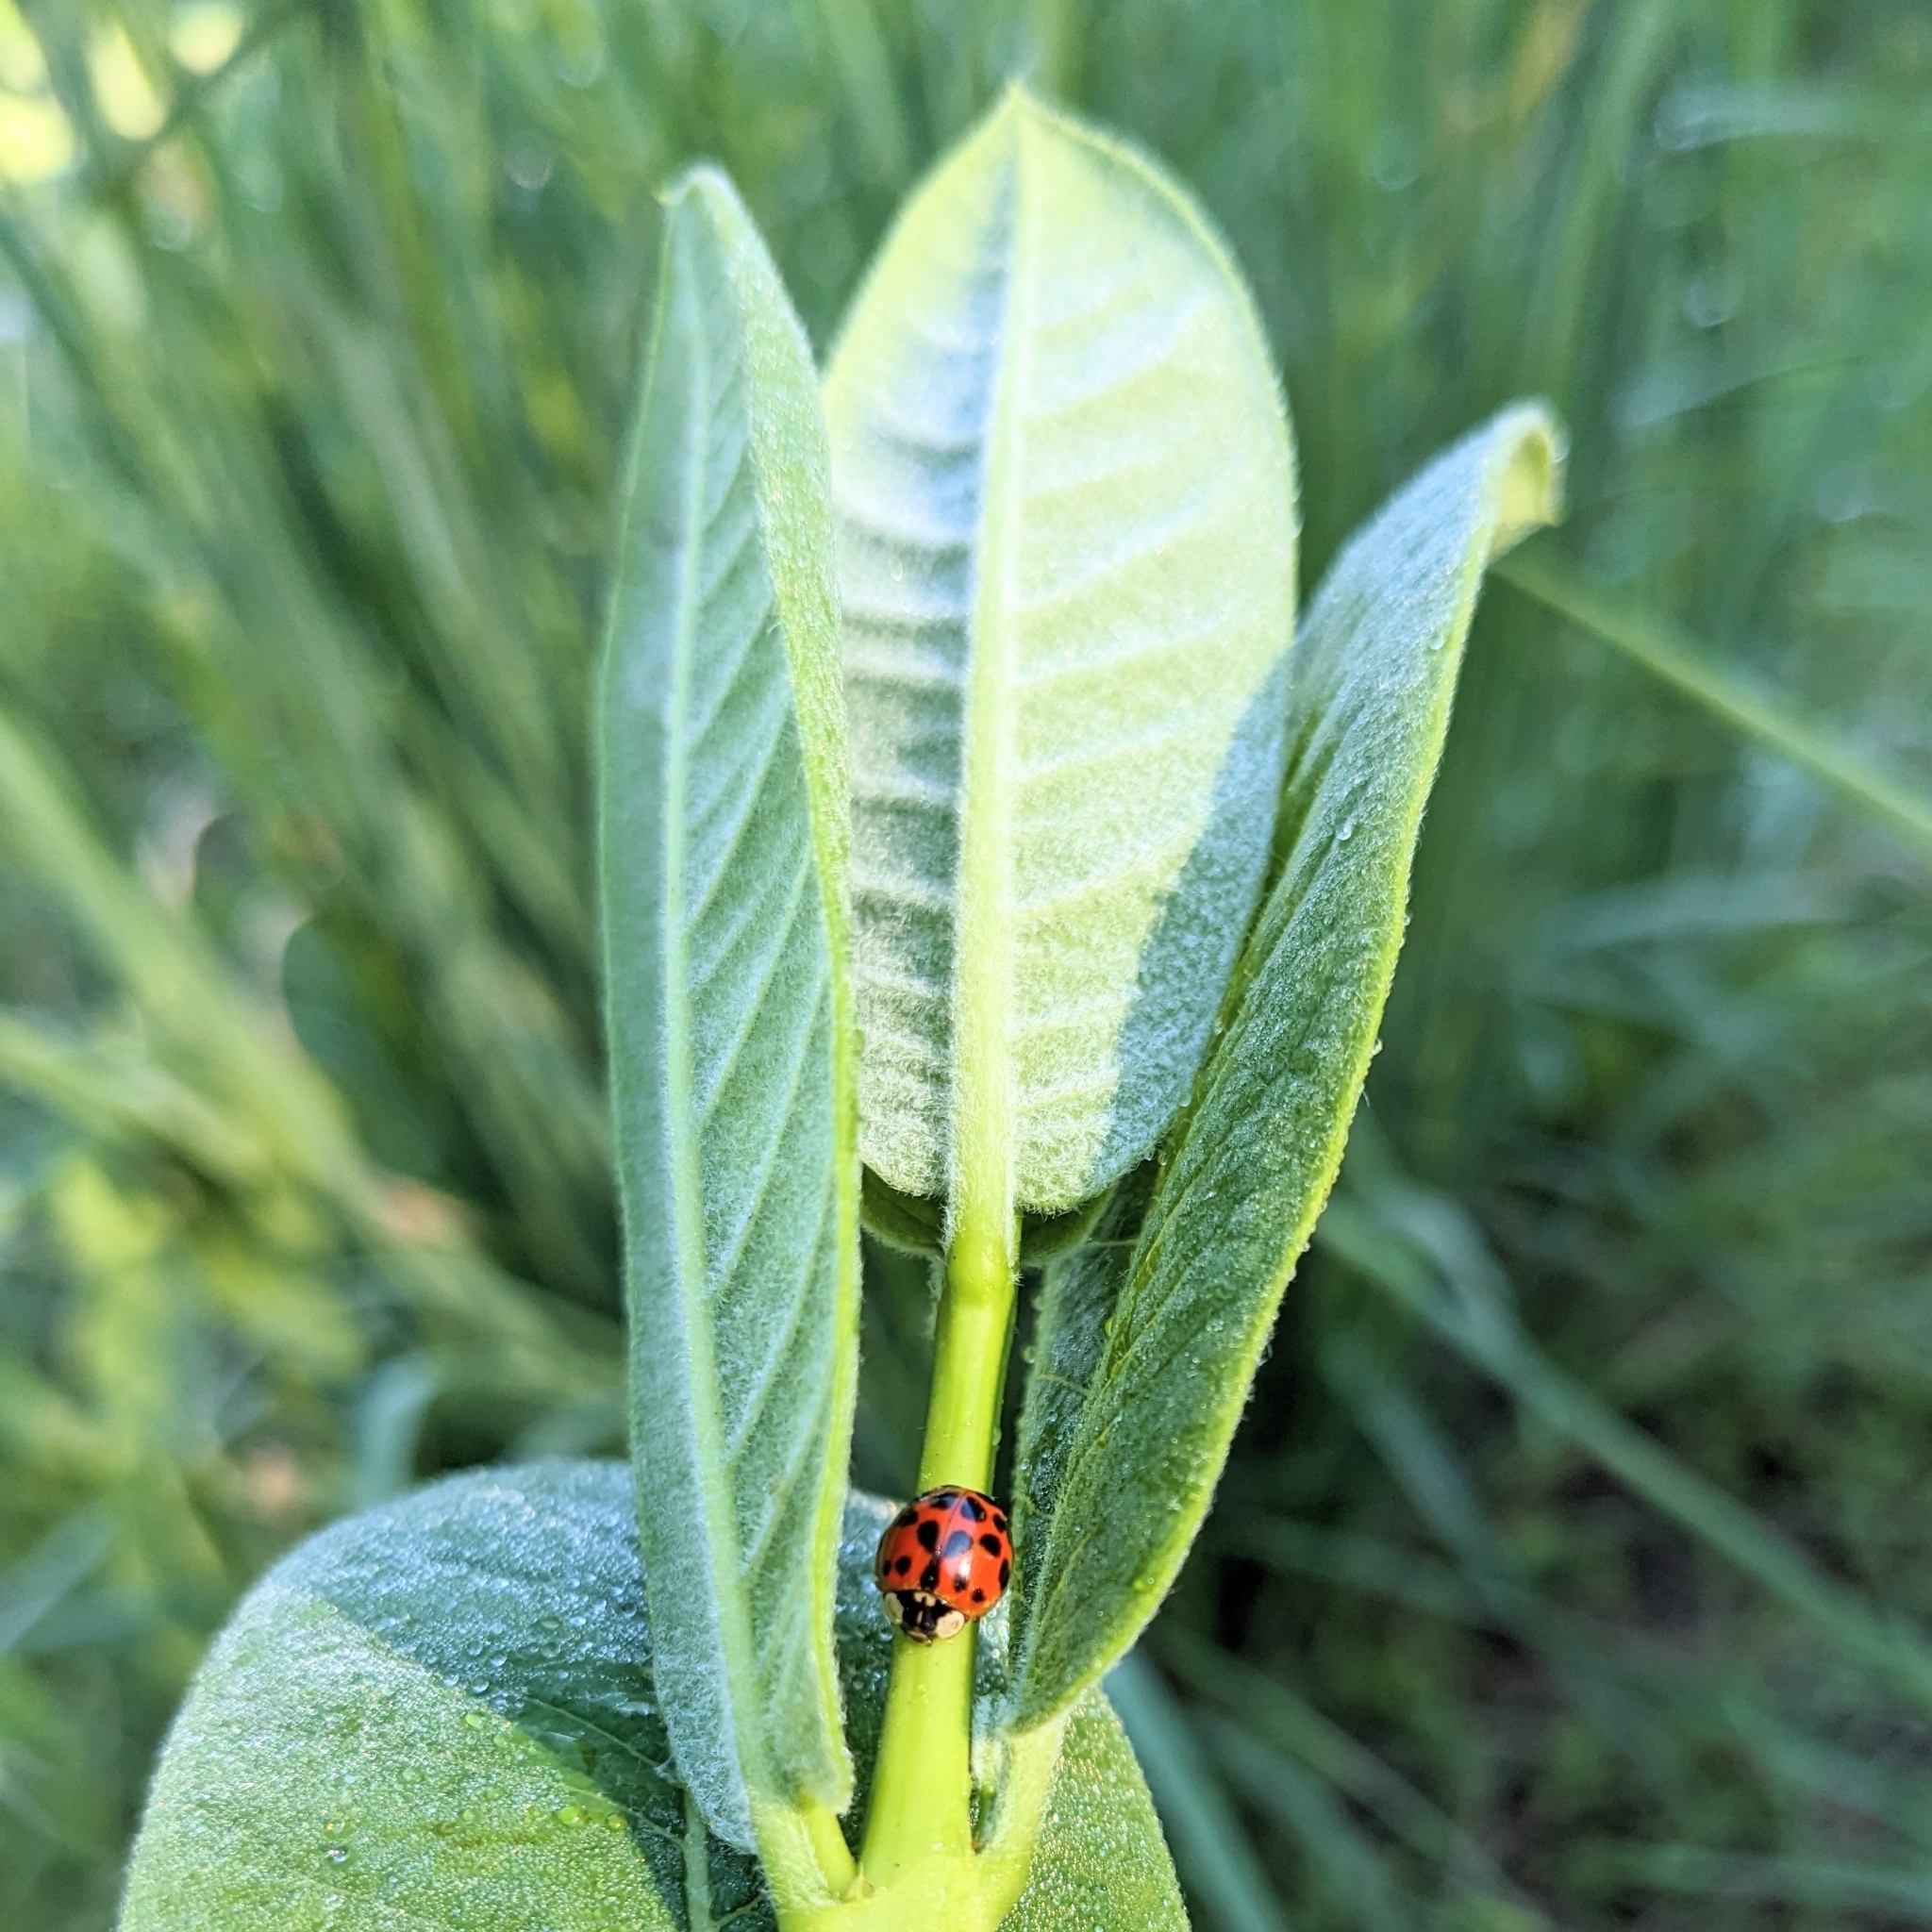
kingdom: Animalia
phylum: Arthropoda
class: Insecta
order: Coleoptera
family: Coccinellidae
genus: Harmonia
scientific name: Harmonia axyridis
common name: Harlequin ladybird
